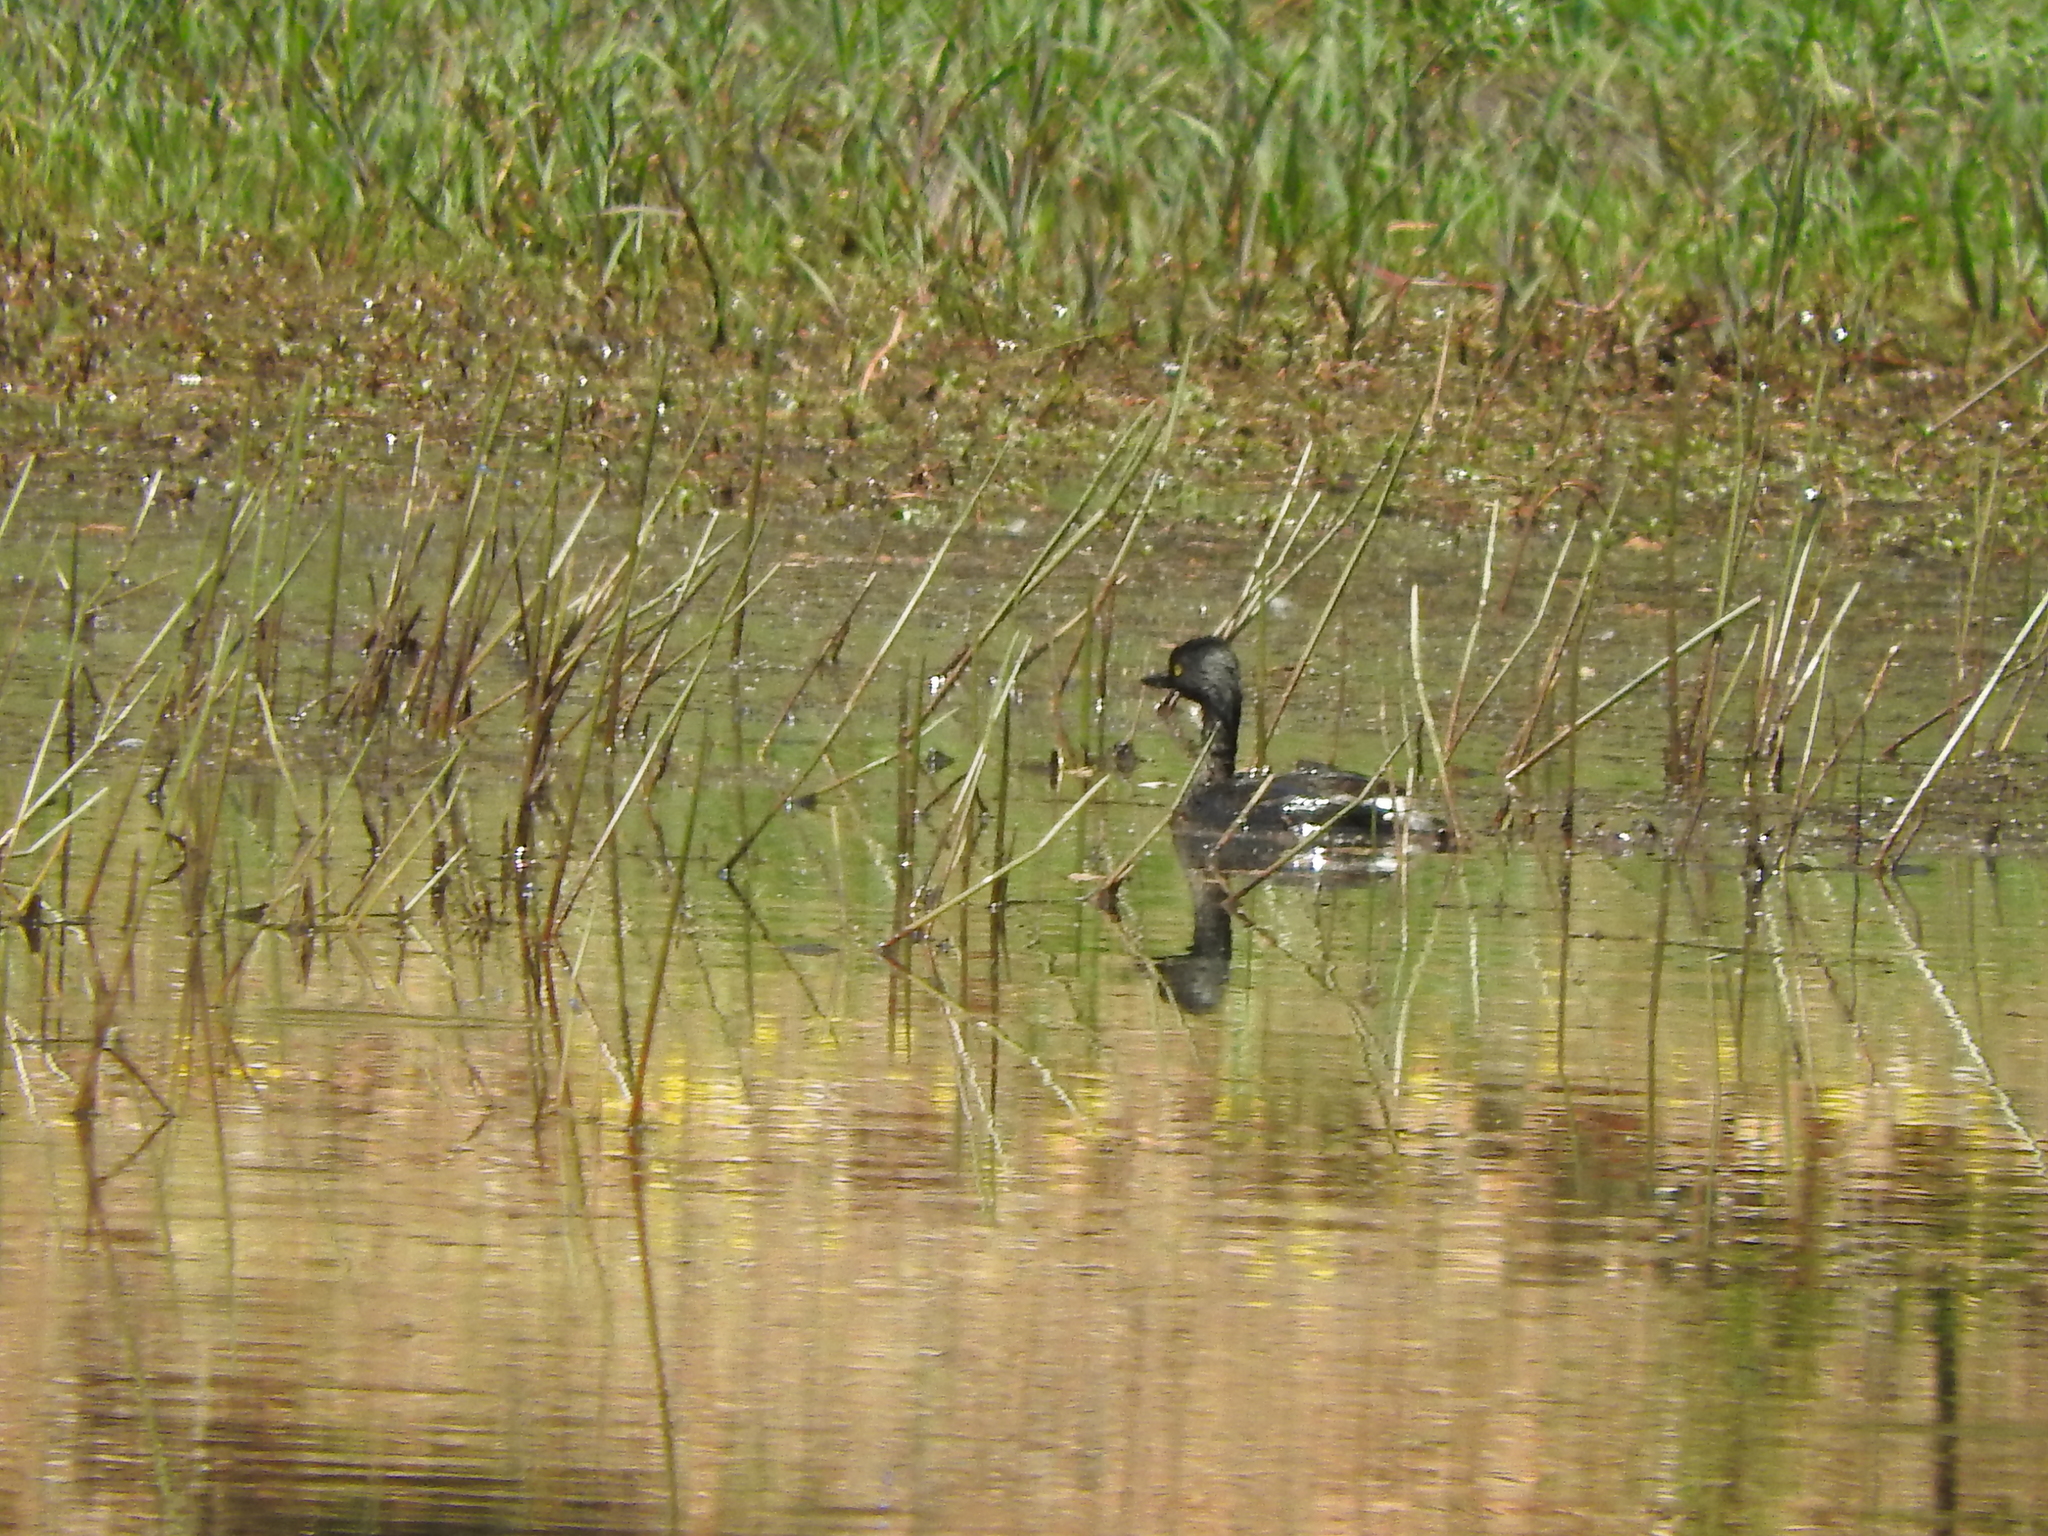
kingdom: Animalia
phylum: Chordata
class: Aves
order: Podicipediformes
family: Podicipedidae
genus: Tachybaptus
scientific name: Tachybaptus dominicus
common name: Least grebe
